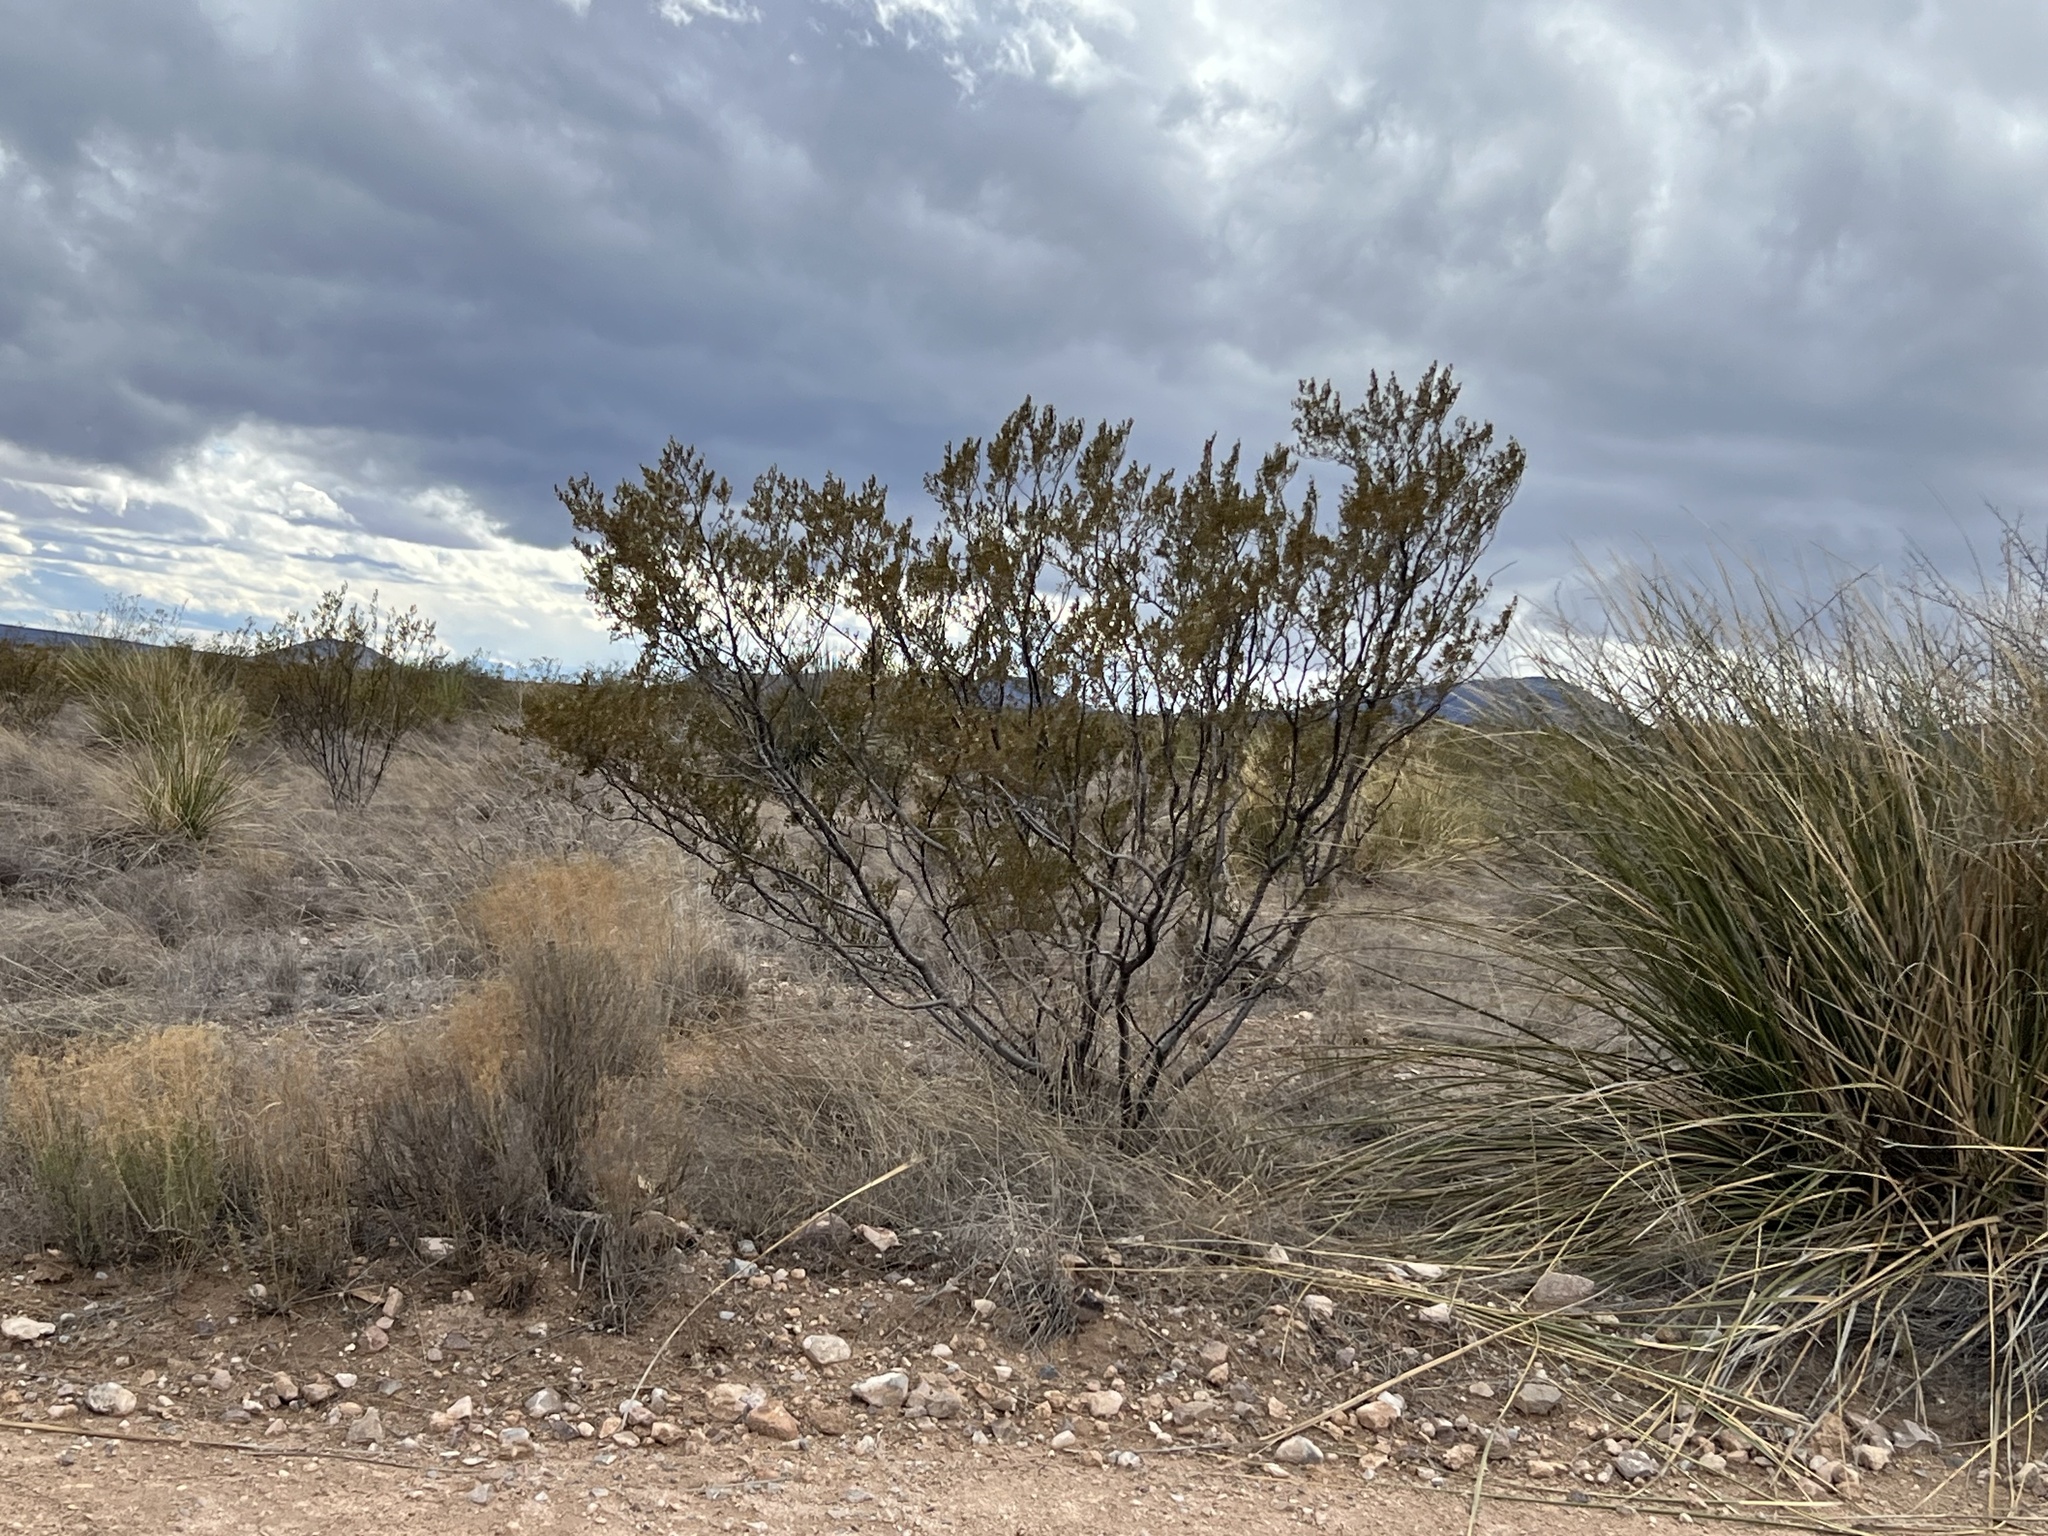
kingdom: Plantae
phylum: Tracheophyta
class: Magnoliopsida
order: Zygophyllales
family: Zygophyllaceae
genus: Larrea
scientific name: Larrea tridentata
